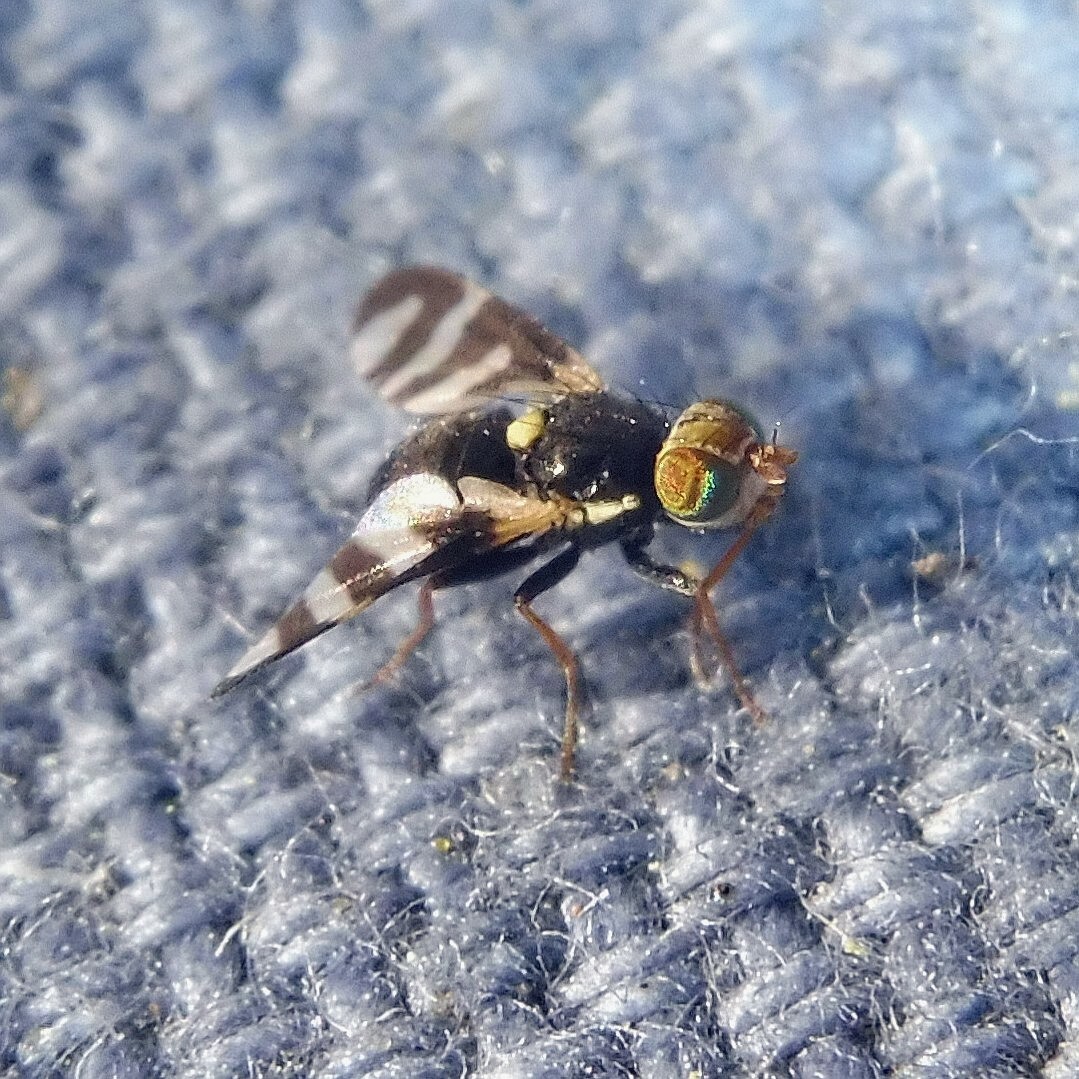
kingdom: Animalia
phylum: Arthropoda
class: Insecta
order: Diptera
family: Tephritidae
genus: Urophora
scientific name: Urophora quadrifasciata
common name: Knapweed seedhead fly
